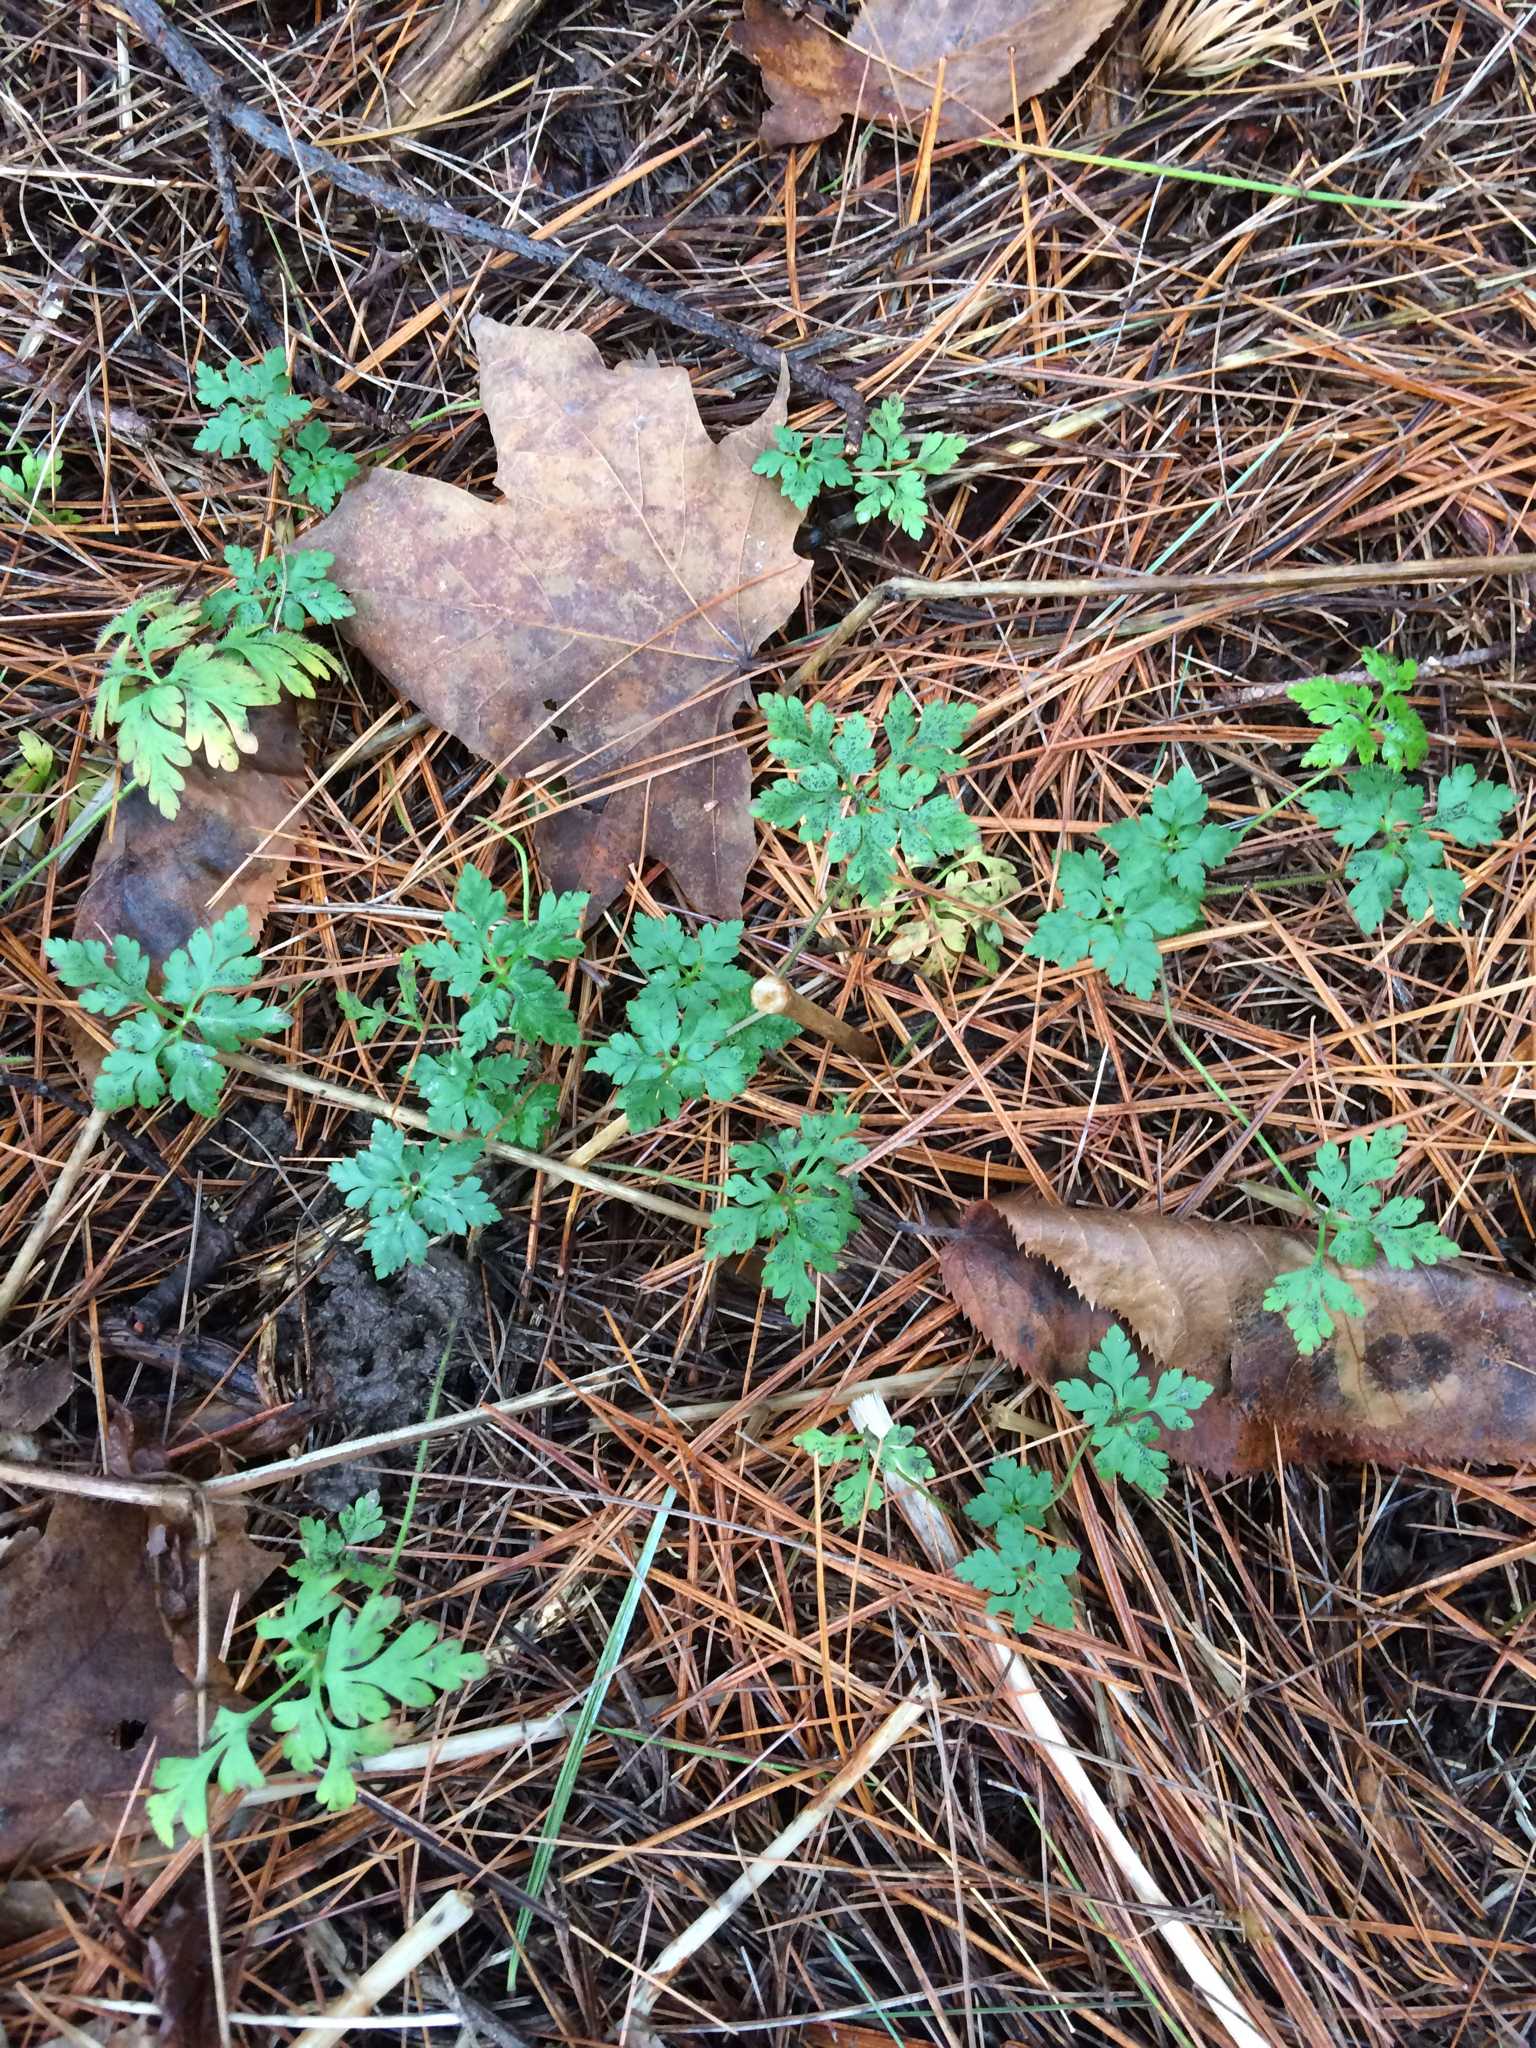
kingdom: Plantae
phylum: Tracheophyta
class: Magnoliopsida
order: Geraniales
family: Geraniaceae
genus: Geranium
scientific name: Geranium robertianum
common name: Herb-robert
